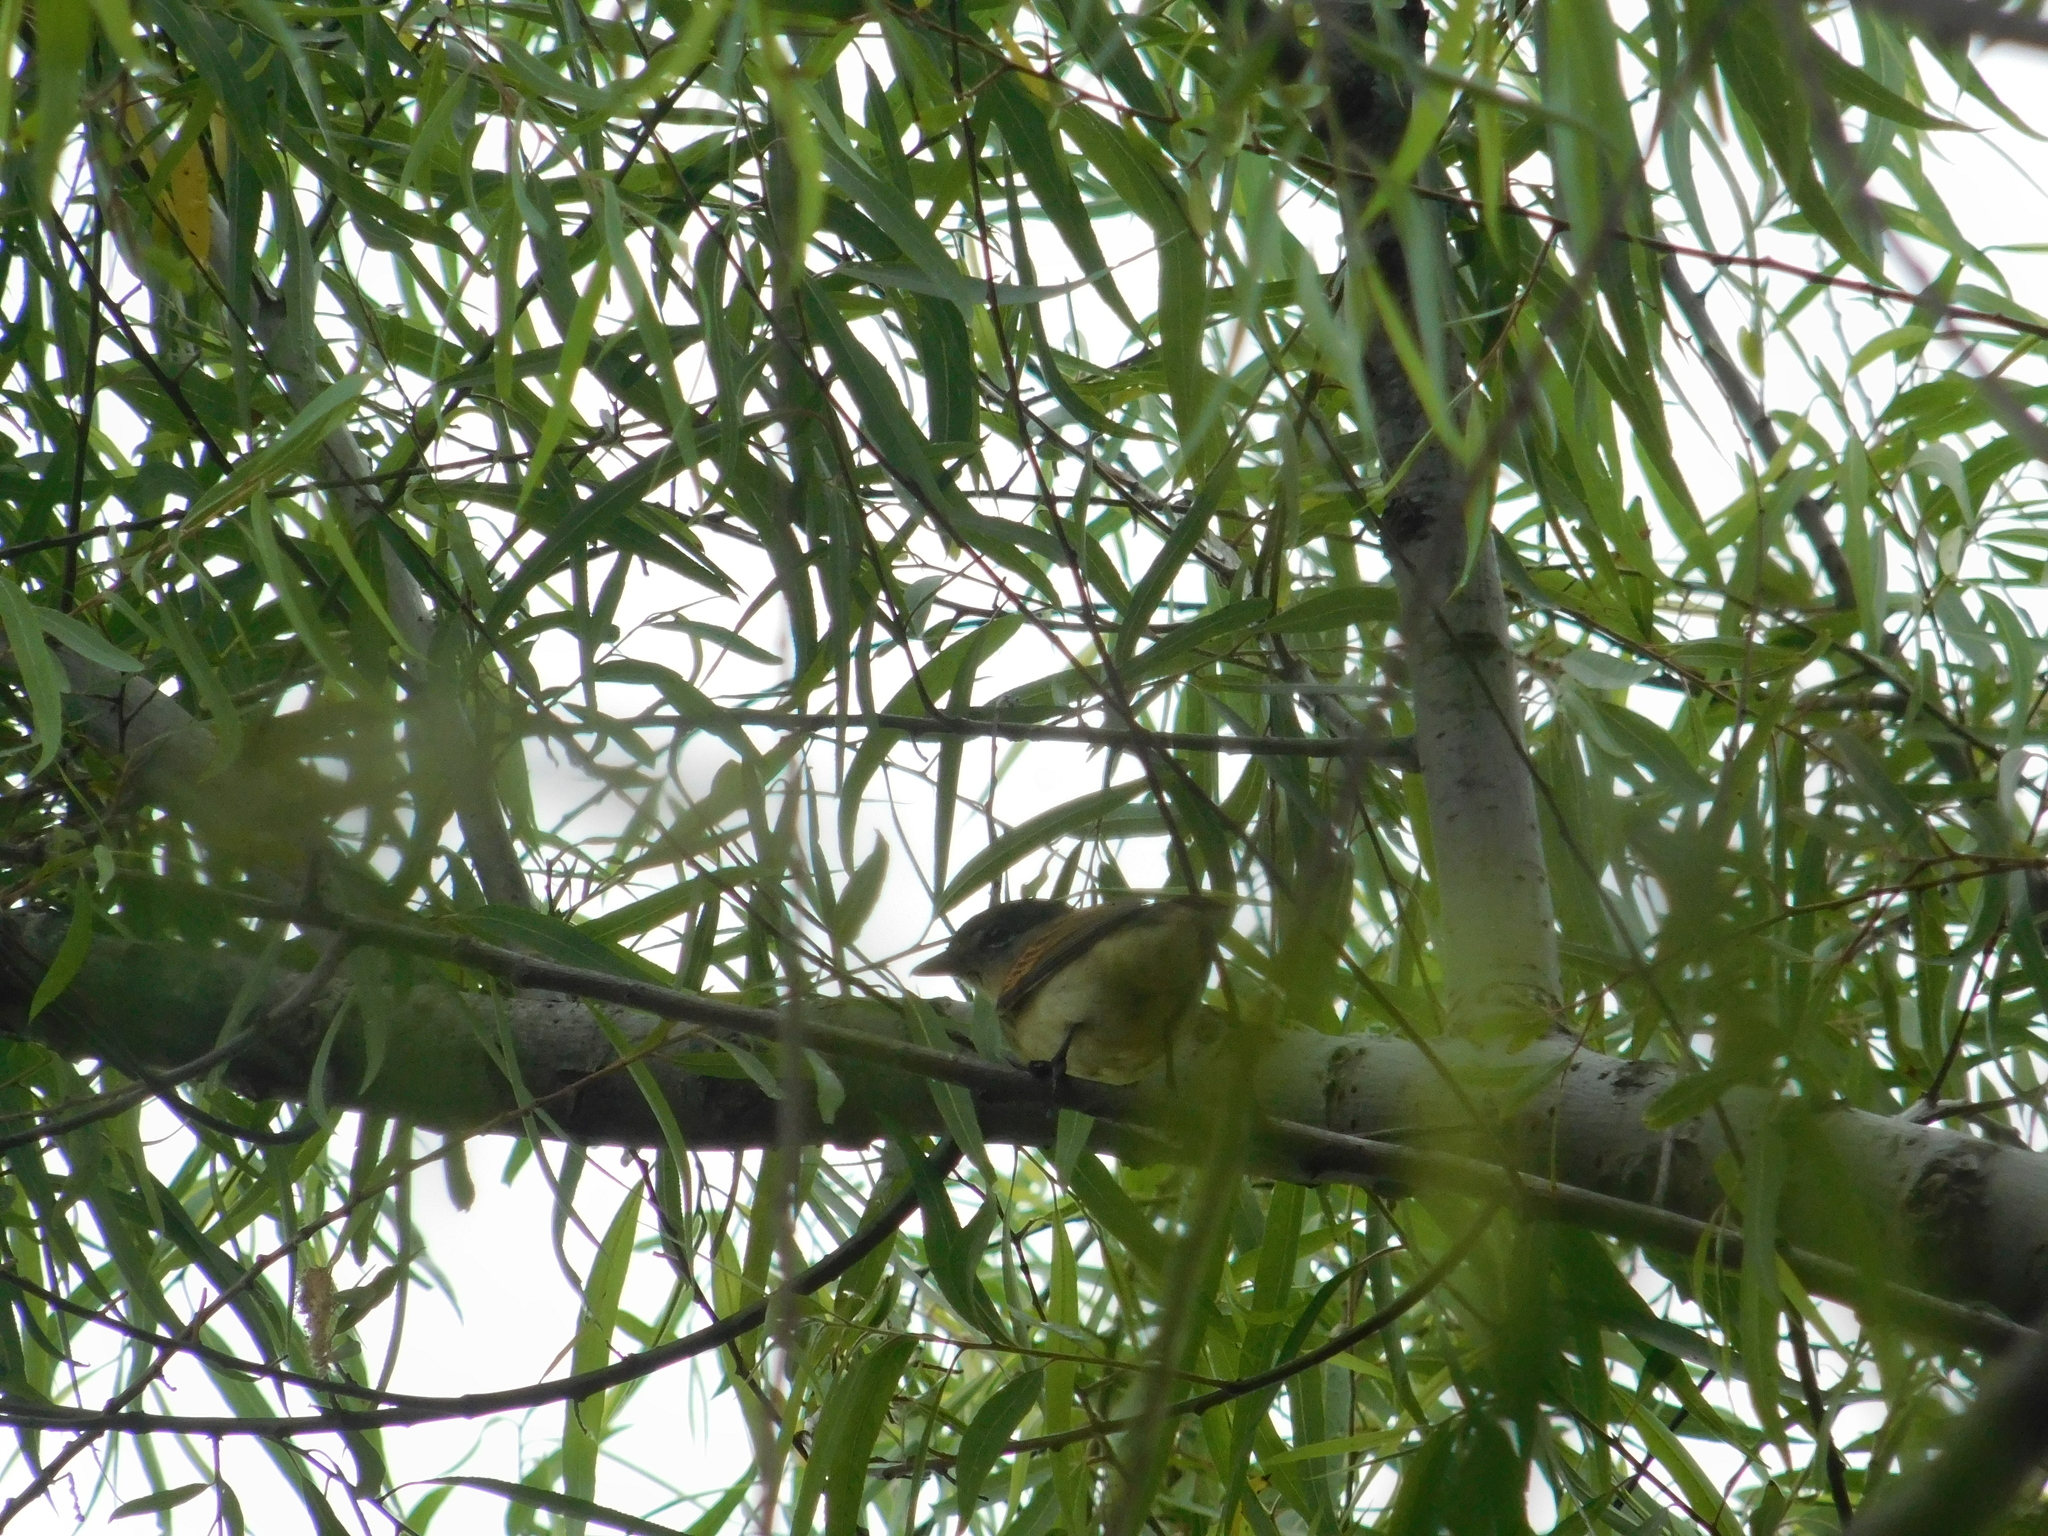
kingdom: Animalia
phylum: Chordata
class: Aves
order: Passeriformes
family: Cotingidae
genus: Pachyramphus
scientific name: Pachyramphus polychopterus
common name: White-winged becard
